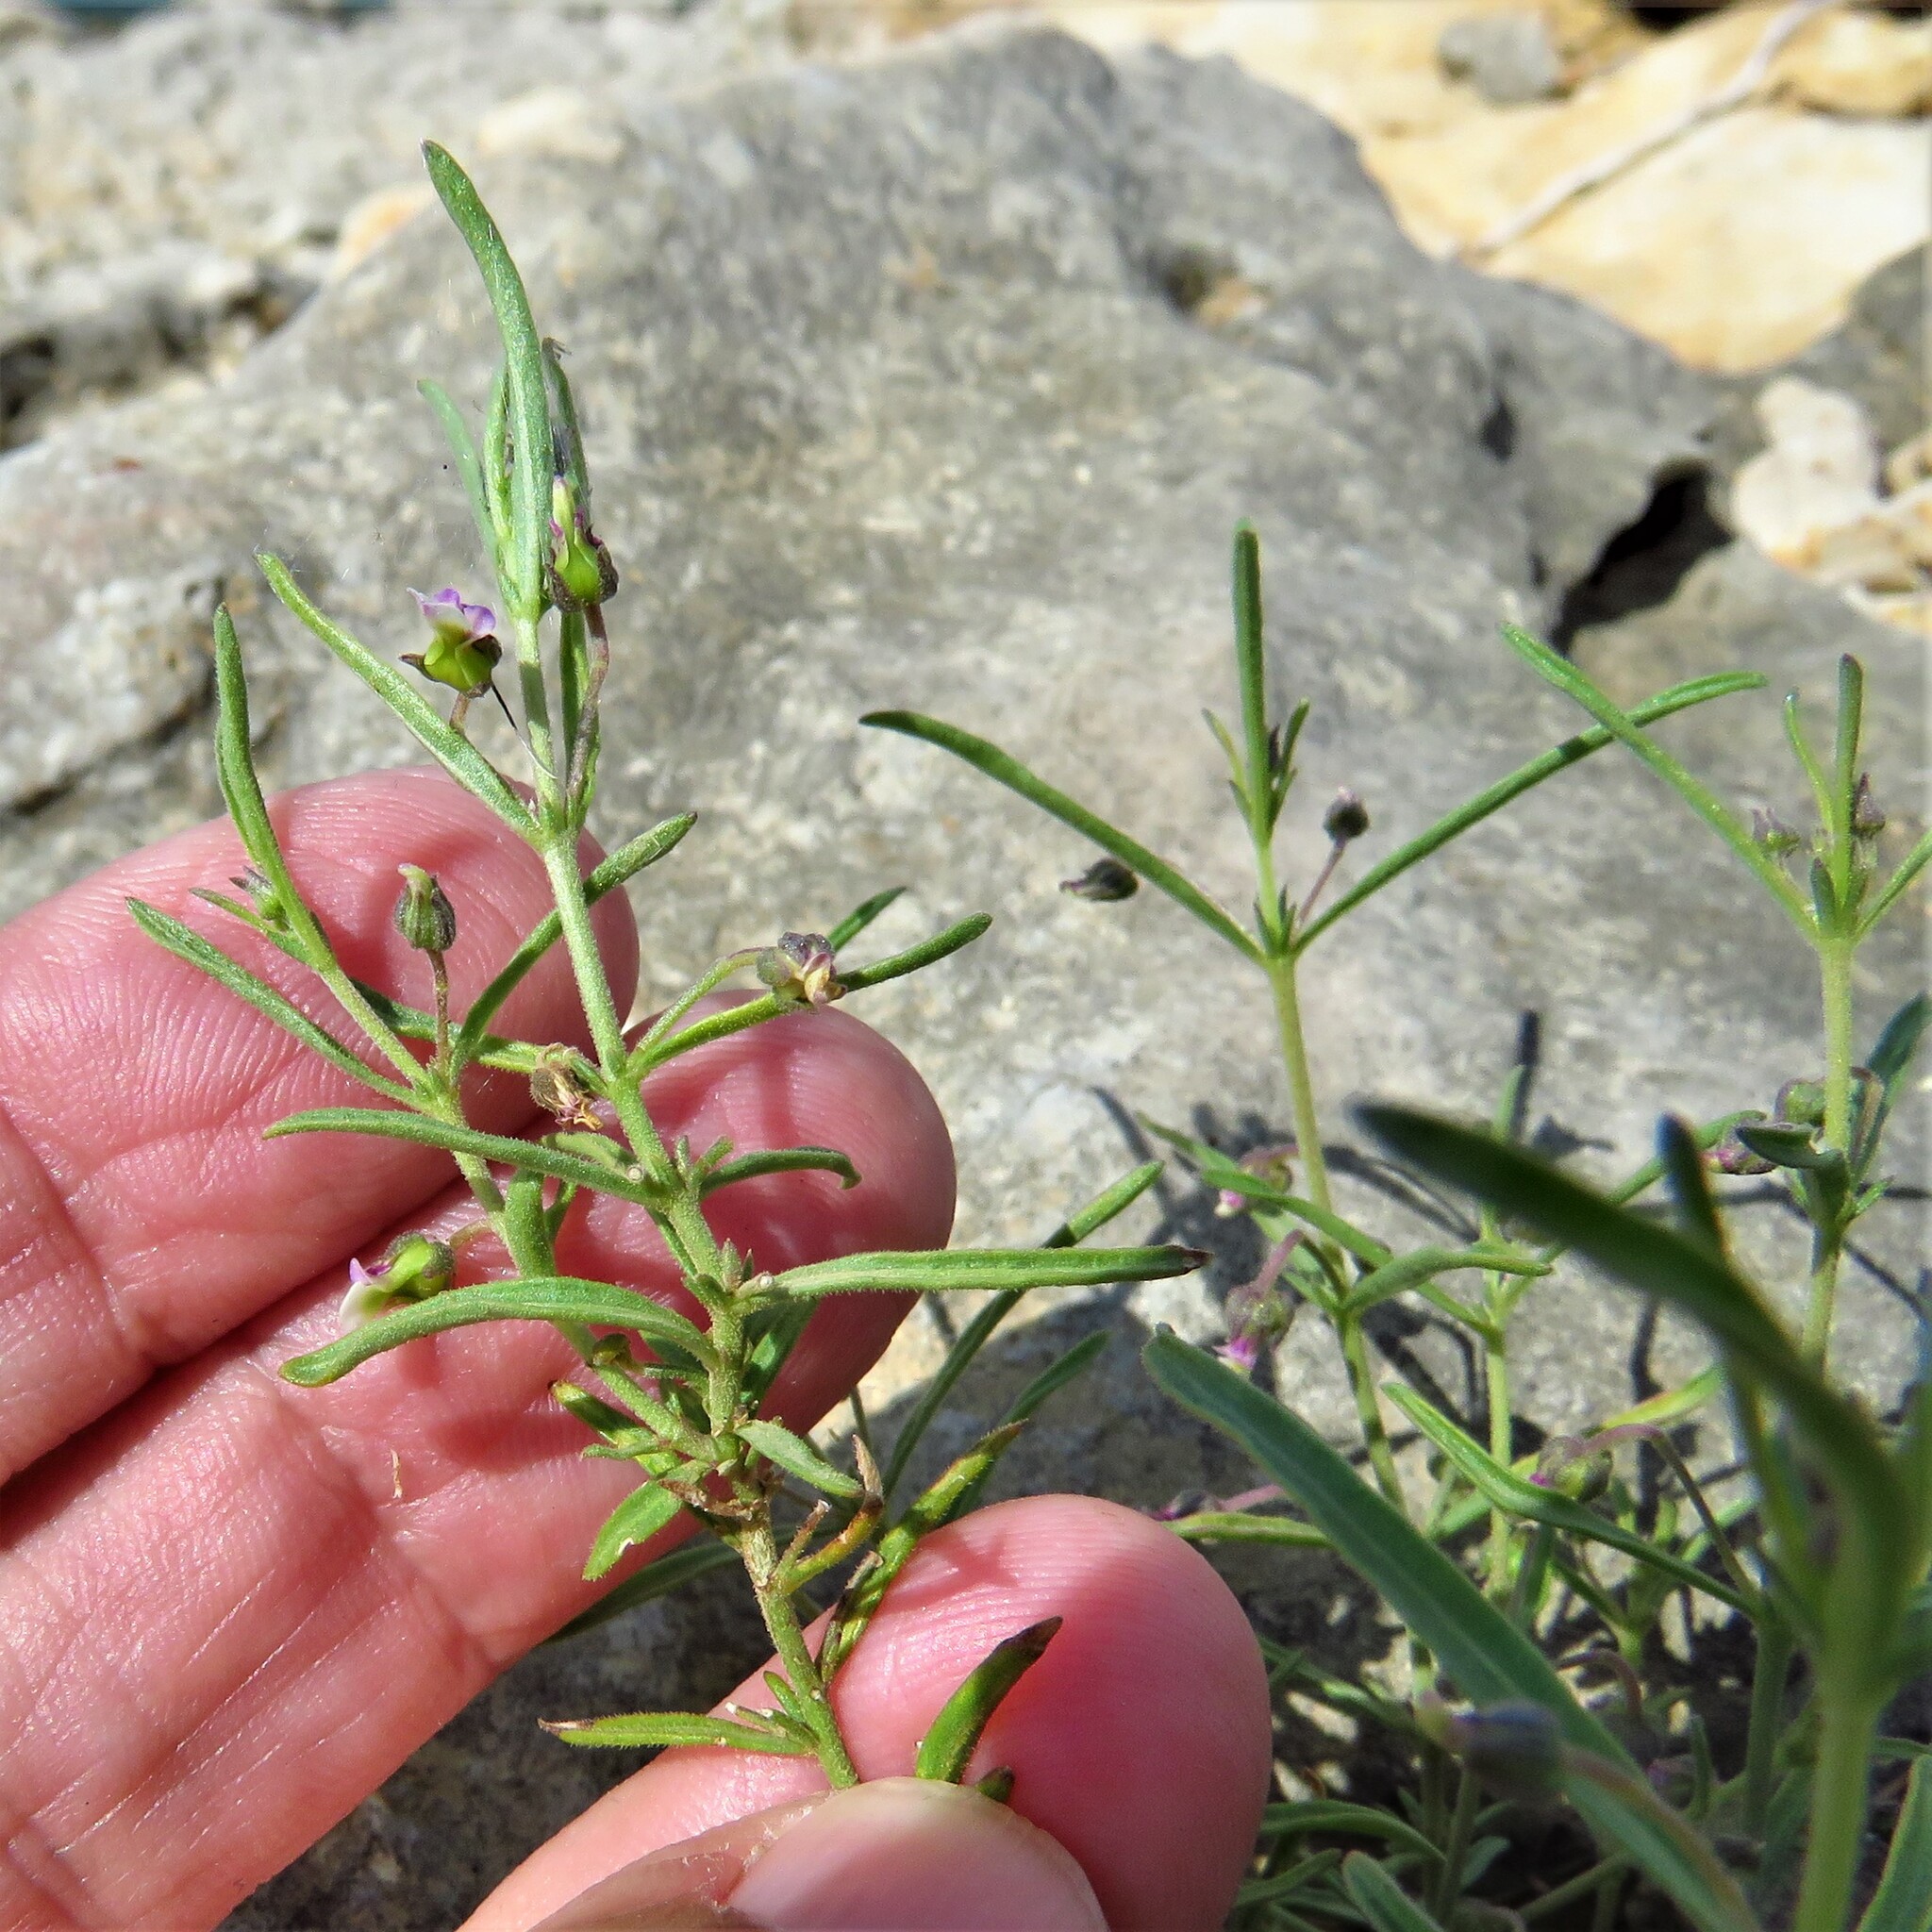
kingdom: Plantae
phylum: Tracheophyta
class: Magnoliopsida
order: Malpighiales
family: Violaceae
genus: Pombalia
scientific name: Pombalia verticillata
